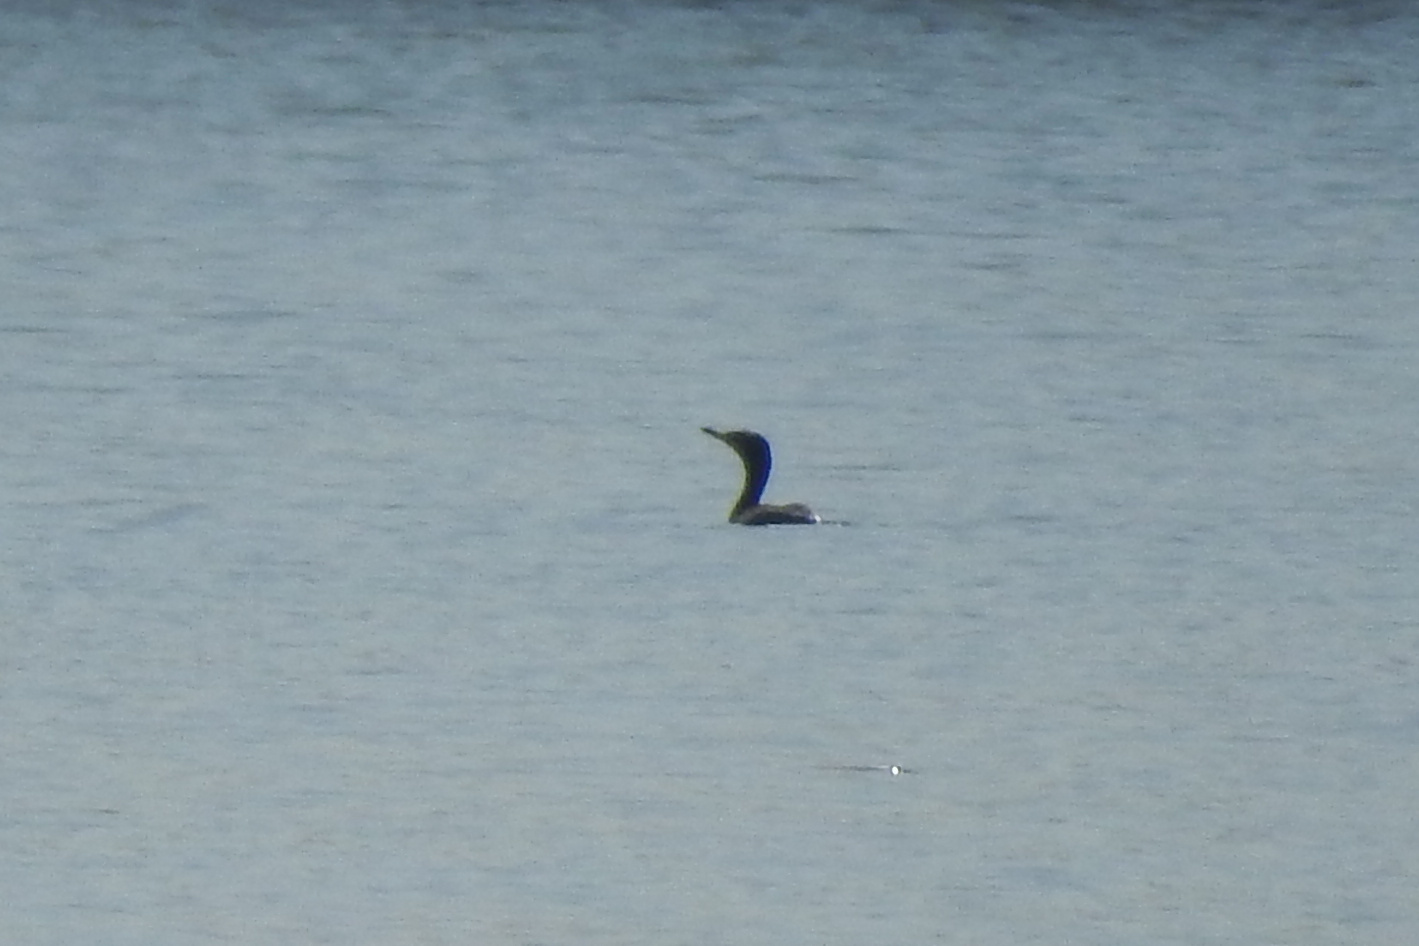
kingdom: Animalia
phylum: Chordata
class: Aves
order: Suliformes
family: Phalacrocoracidae
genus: Phalacrocorax
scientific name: Phalacrocorax auritus
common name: Double-crested cormorant
